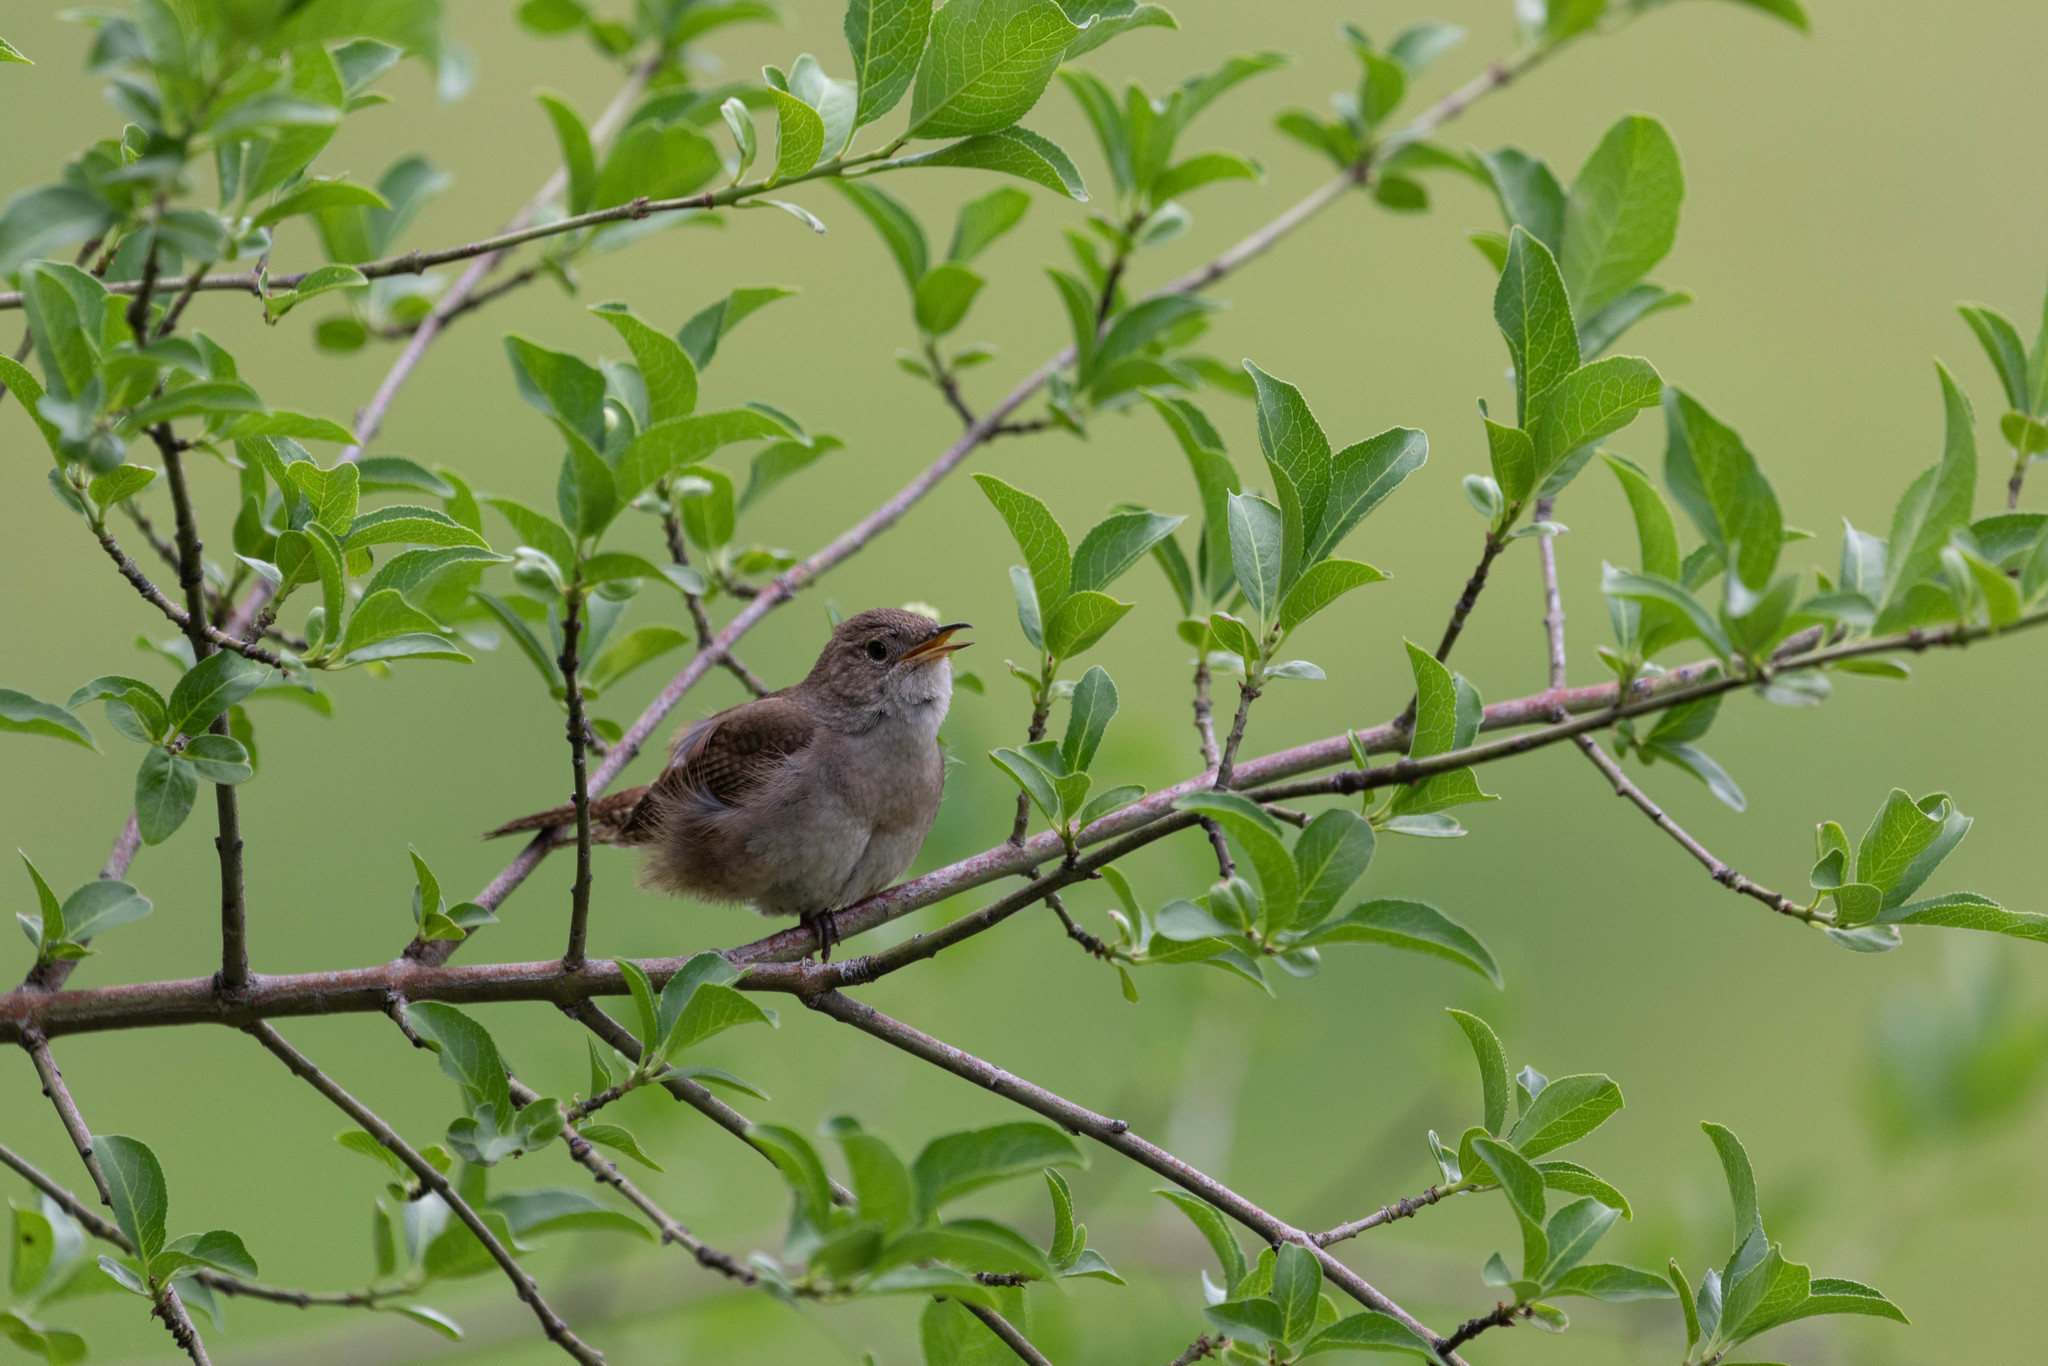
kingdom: Animalia
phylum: Chordata
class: Aves
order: Passeriformes
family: Troglodytidae
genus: Troglodytes
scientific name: Troglodytes aedon
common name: House wren
